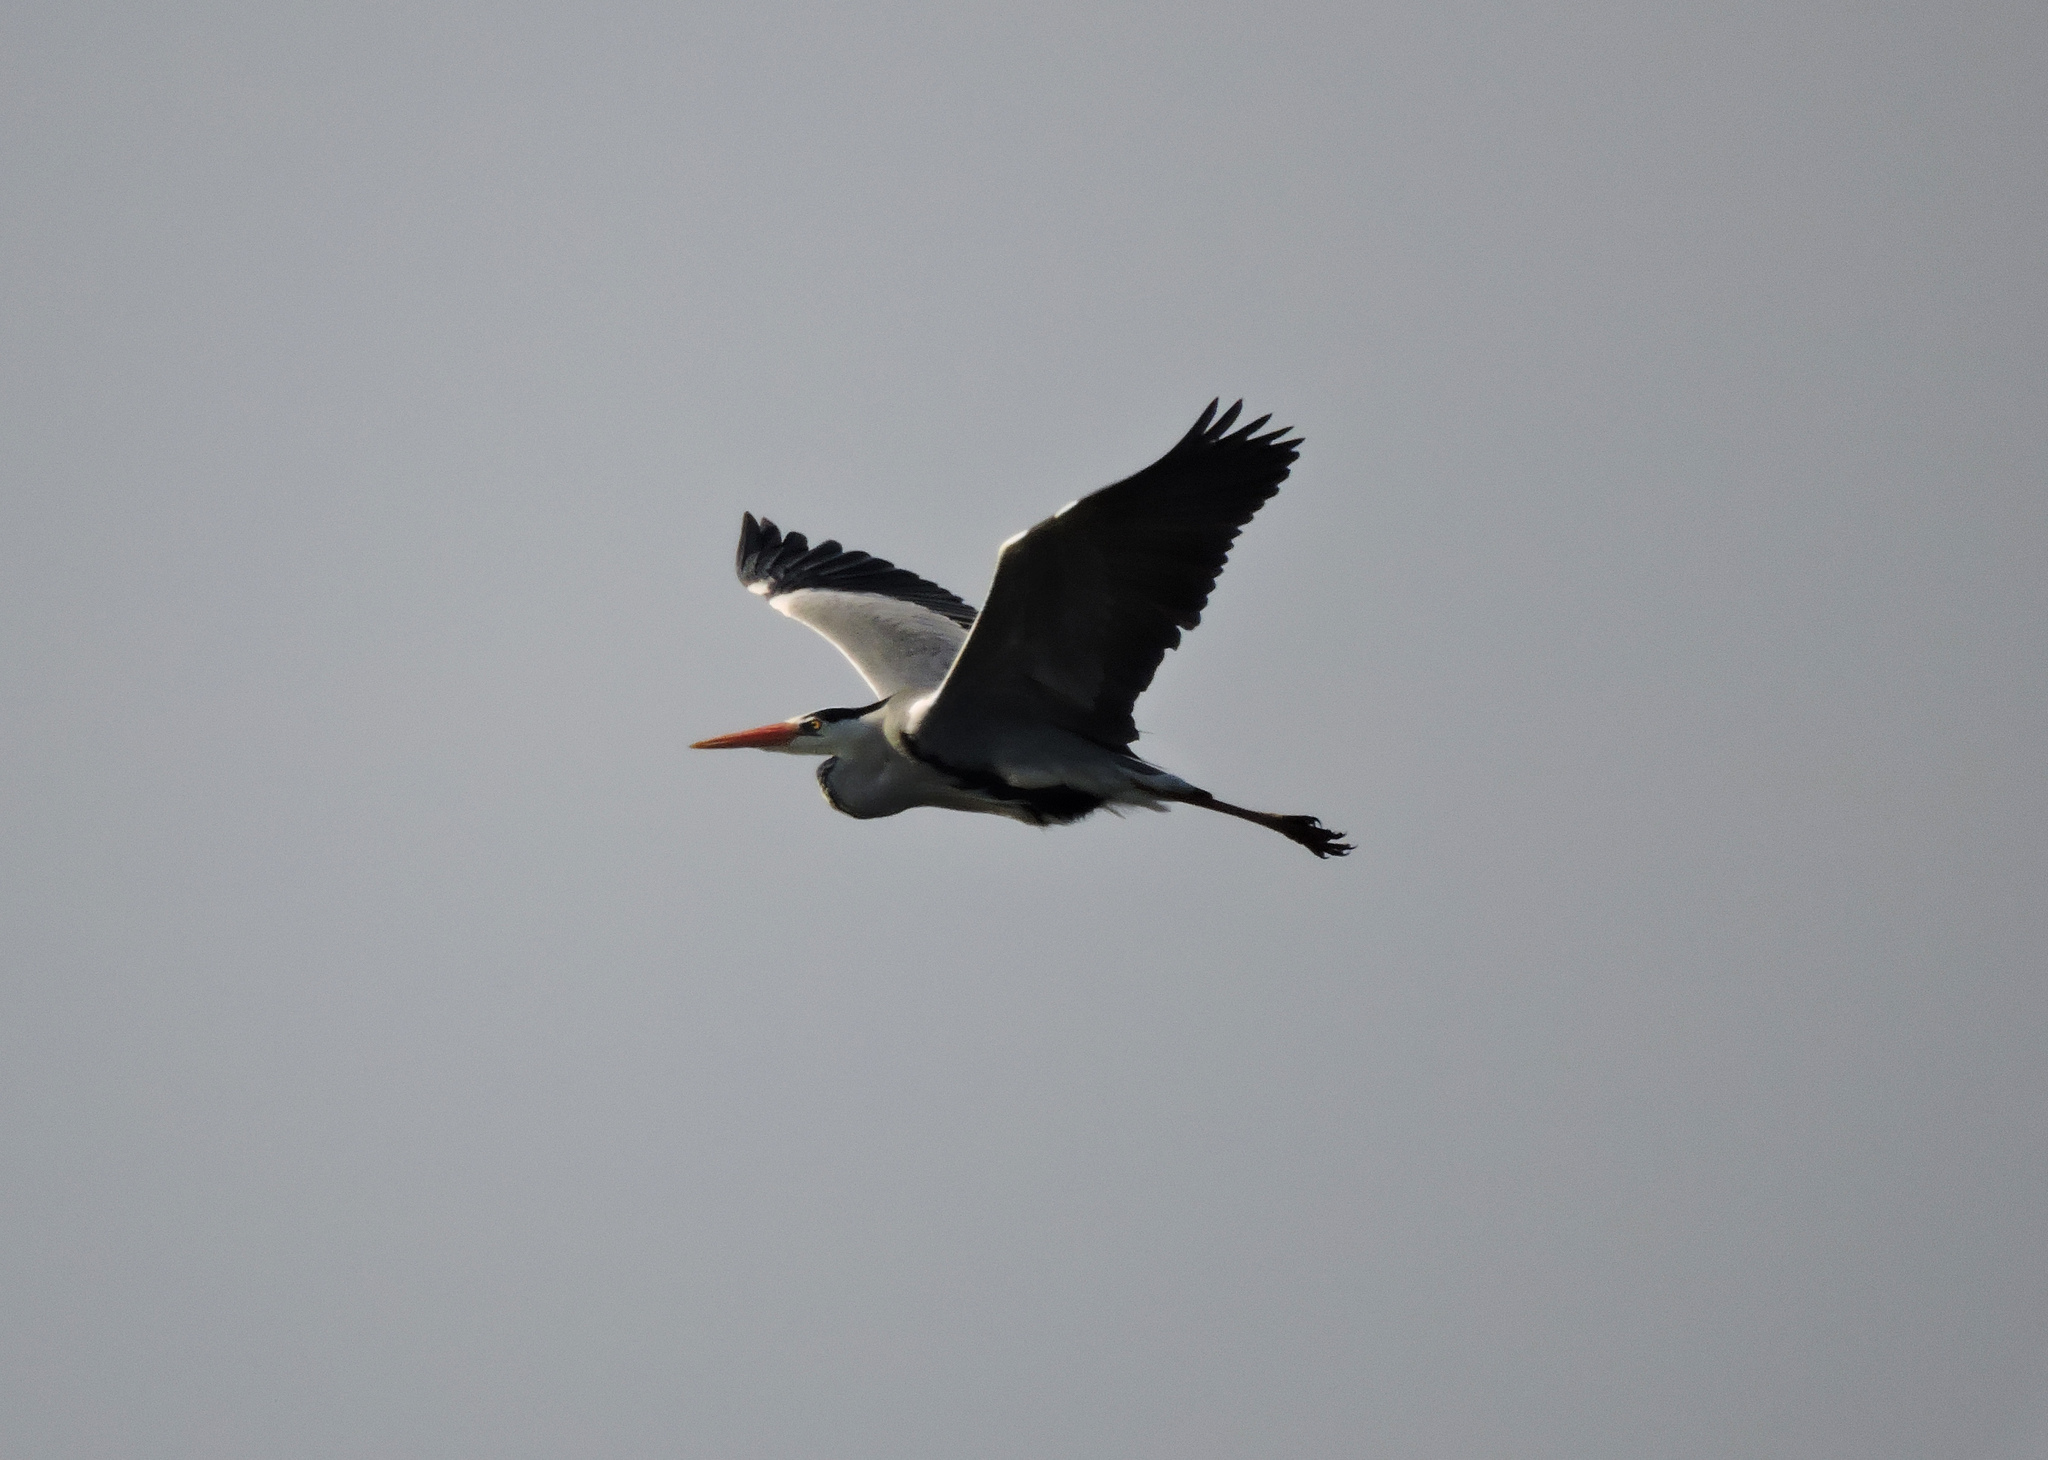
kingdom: Animalia
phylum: Chordata
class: Aves
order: Pelecaniformes
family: Ardeidae
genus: Ardea
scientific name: Ardea cinerea
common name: Grey heron
